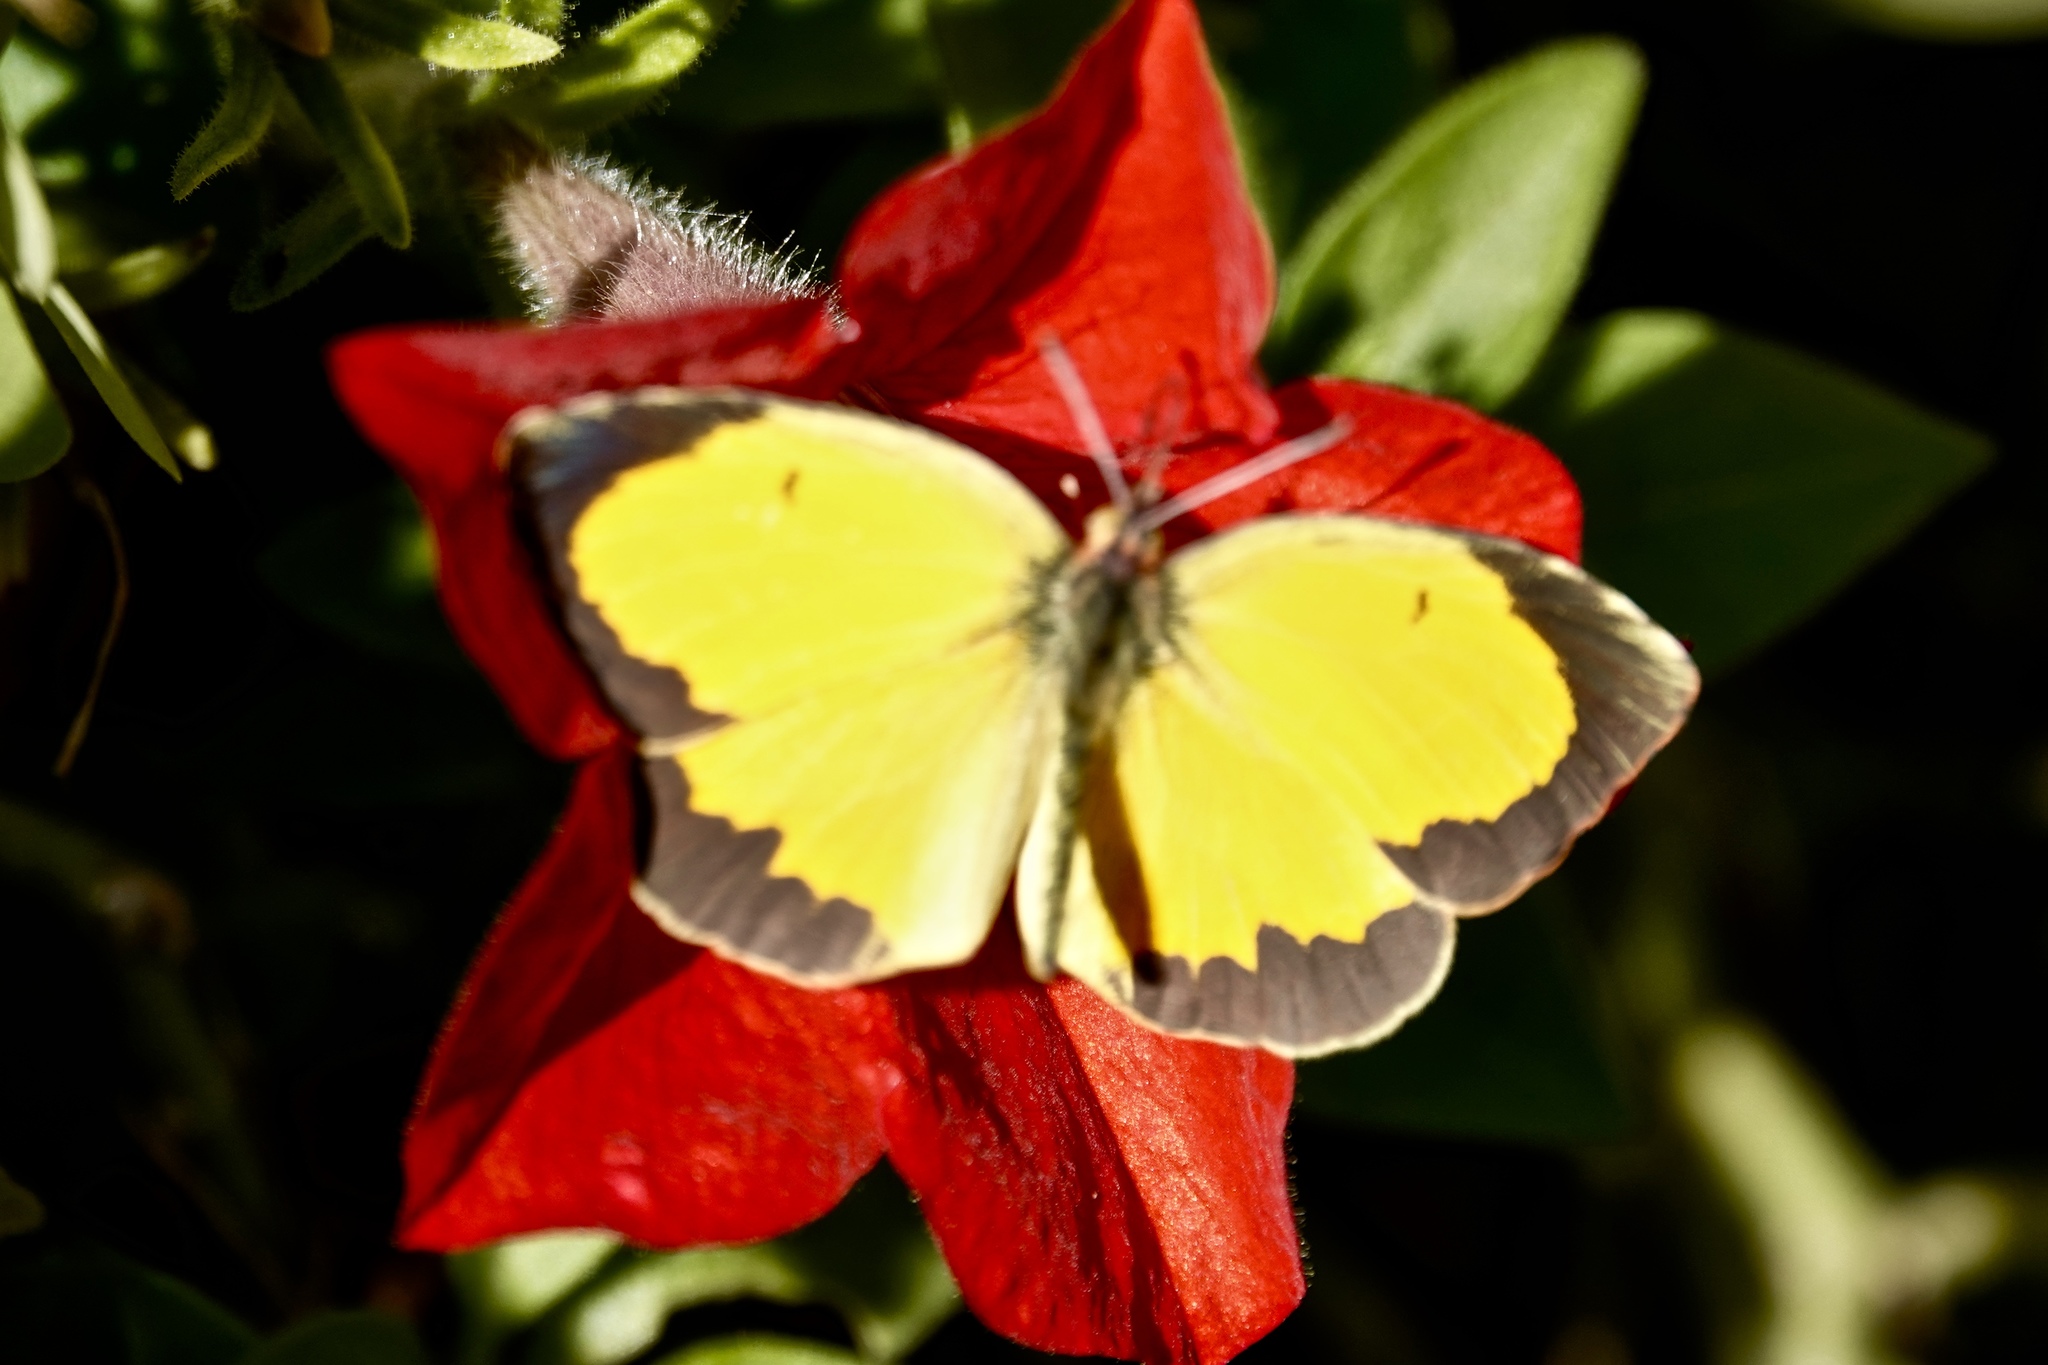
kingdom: Animalia
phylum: Arthropoda
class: Insecta
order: Lepidoptera
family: Pieridae
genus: Abaeis
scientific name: Abaeis nicippe
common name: Sleepy orange
